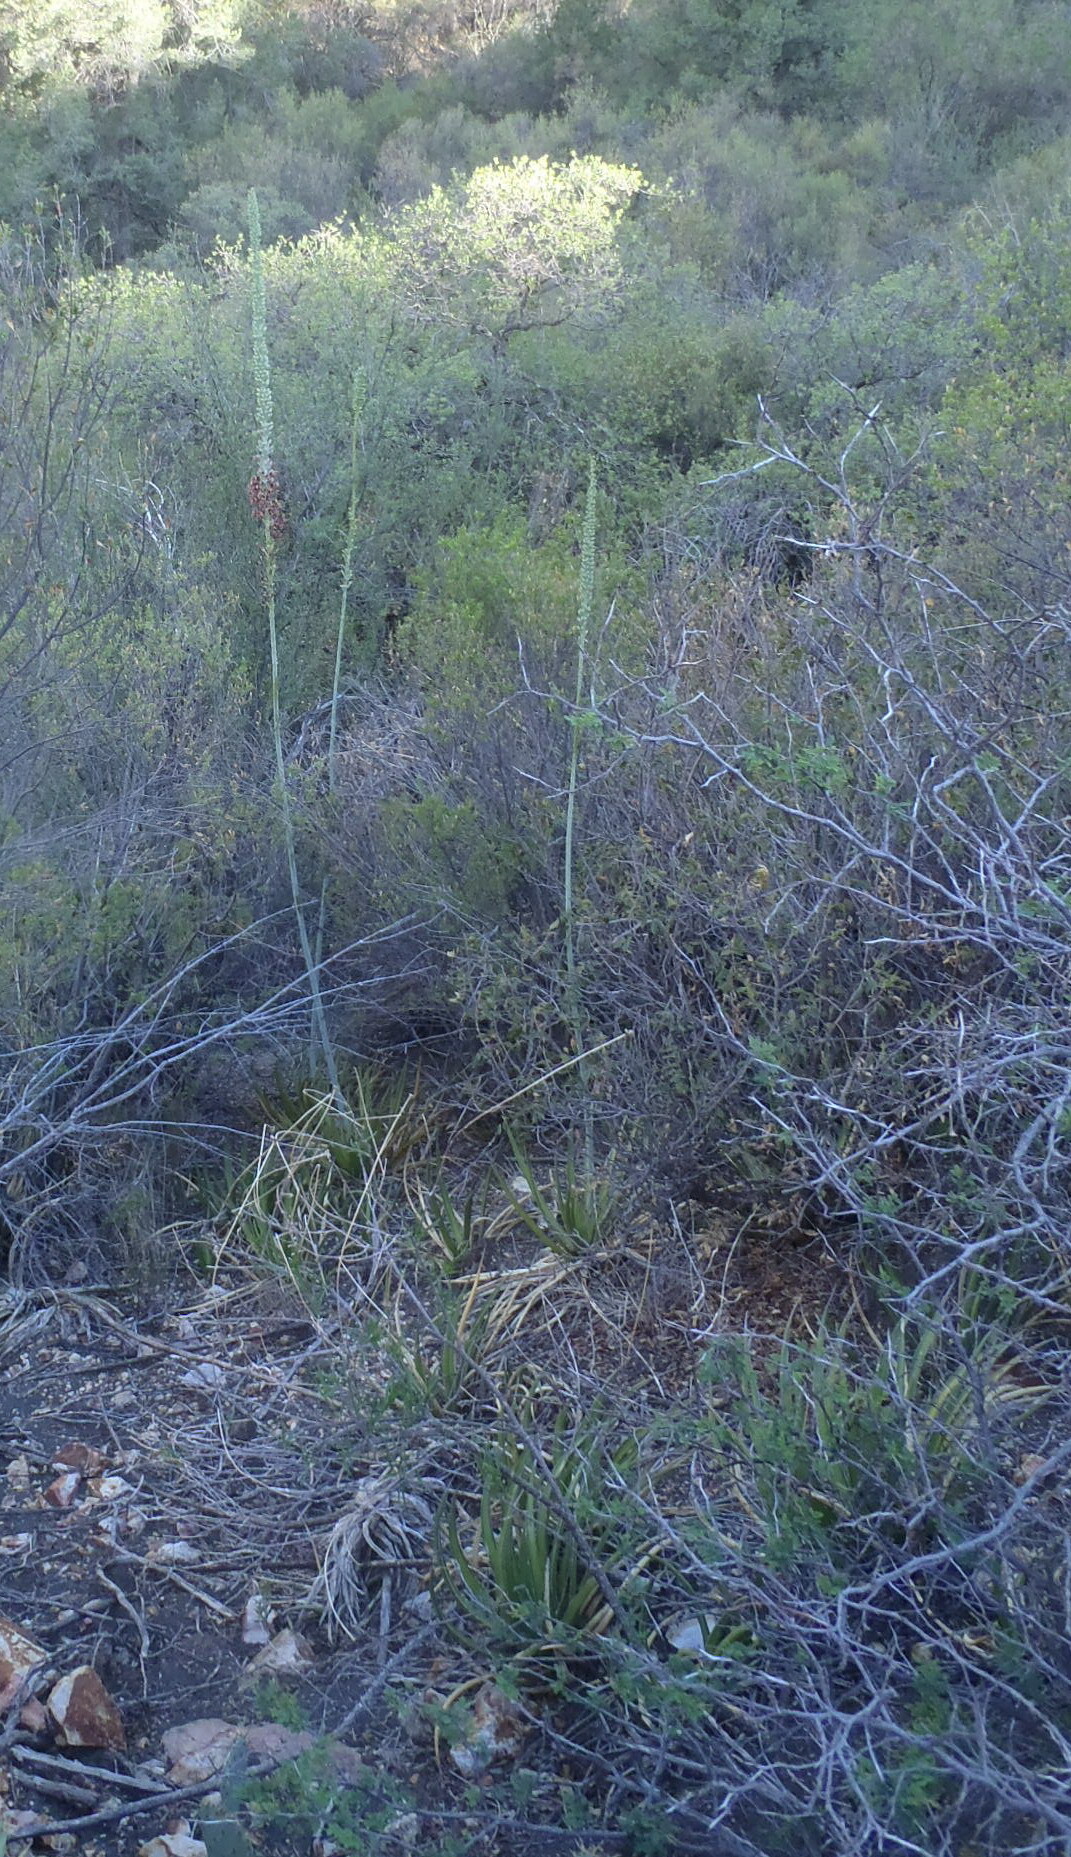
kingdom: Plantae
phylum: Tracheophyta
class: Liliopsida
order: Asparagales
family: Asparagaceae
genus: Agave
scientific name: Agave lechuguilla
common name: Lecheguilla agave
